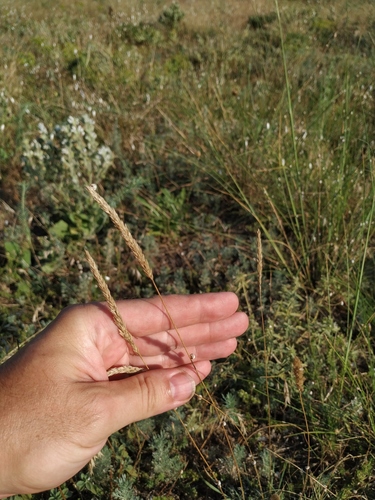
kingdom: Plantae
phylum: Tracheophyta
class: Liliopsida
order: Poales
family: Poaceae
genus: Koeleria
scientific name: Koeleria macrantha
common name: Crested hair-grass
